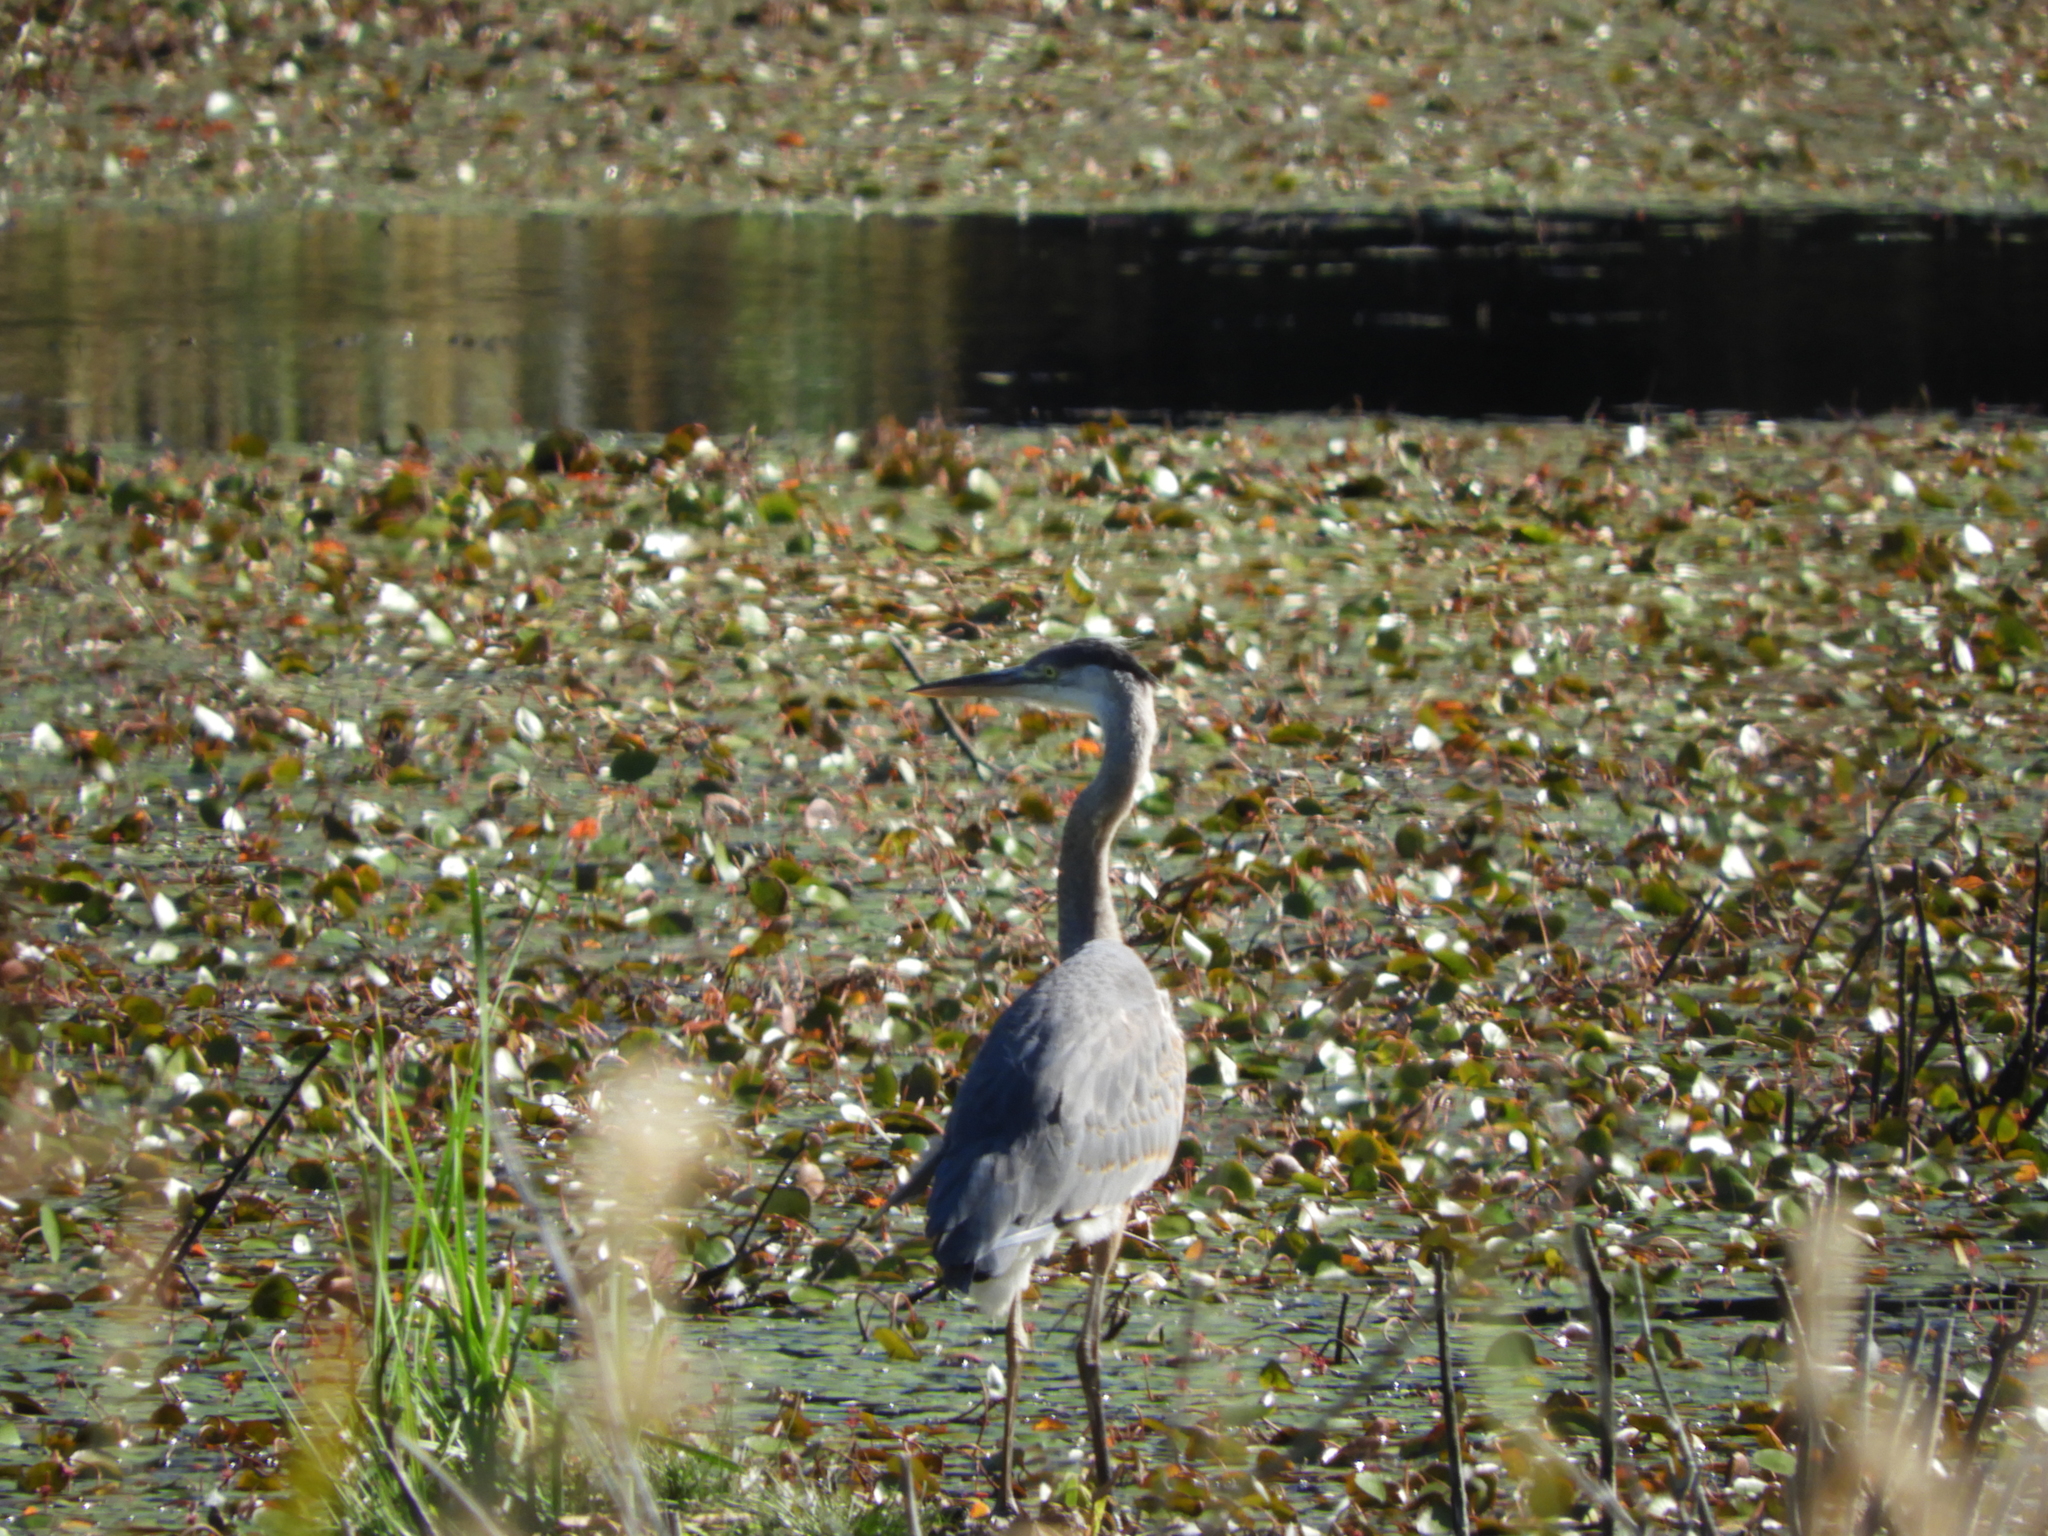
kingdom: Animalia
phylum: Chordata
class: Aves
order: Pelecaniformes
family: Ardeidae
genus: Ardea
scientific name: Ardea herodias
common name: Great blue heron
